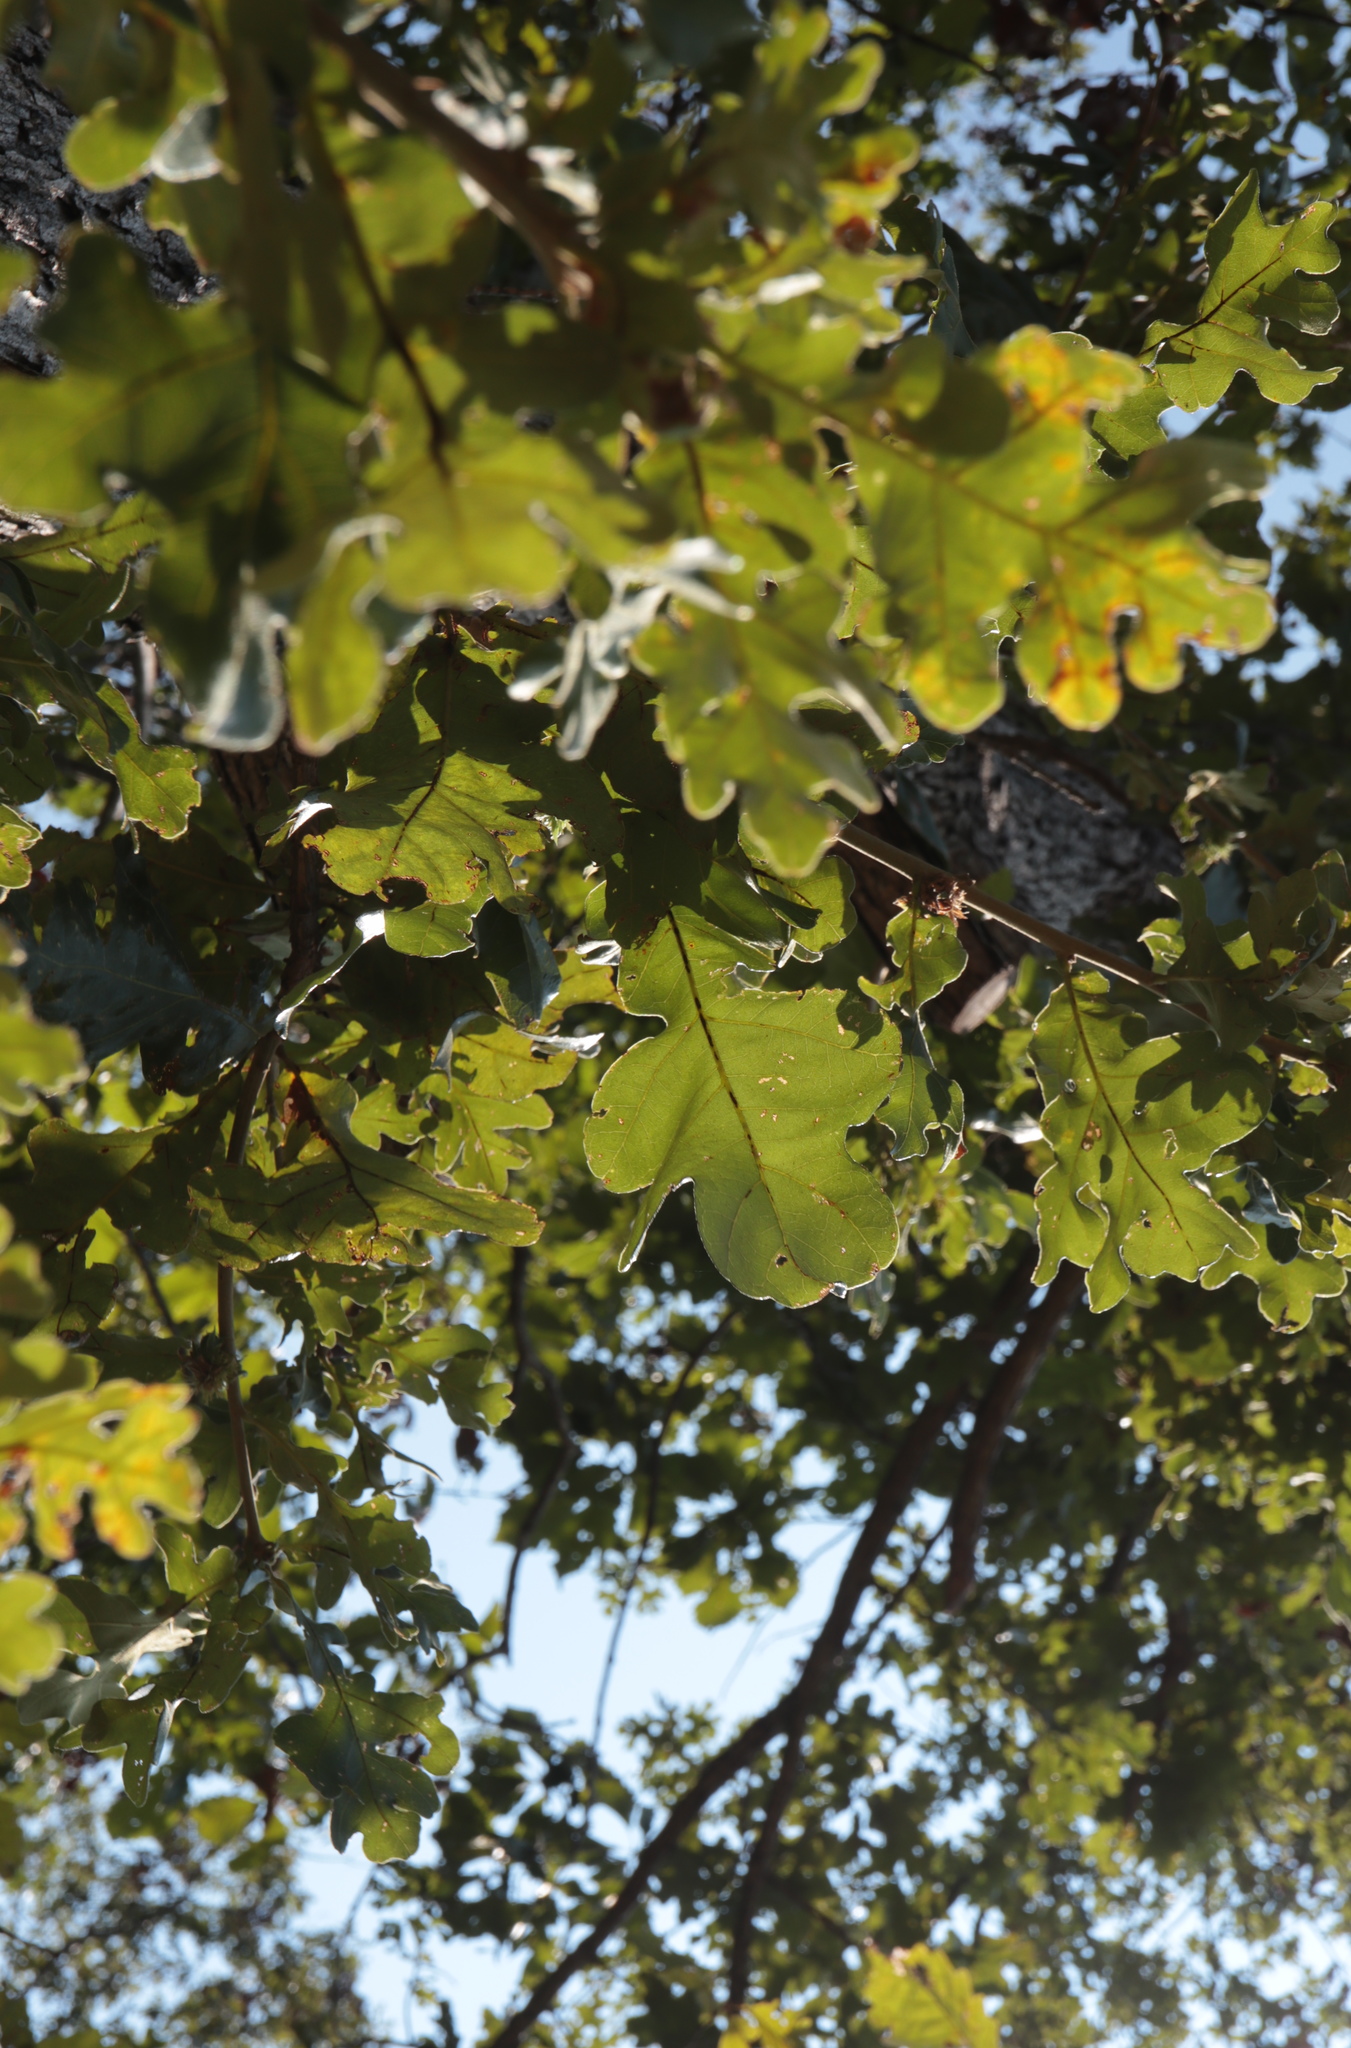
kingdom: Plantae
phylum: Tracheophyta
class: Magnoliopsida
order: Fagales
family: Fagaceae
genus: Quercus
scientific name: Quercus stellata
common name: Post oak
